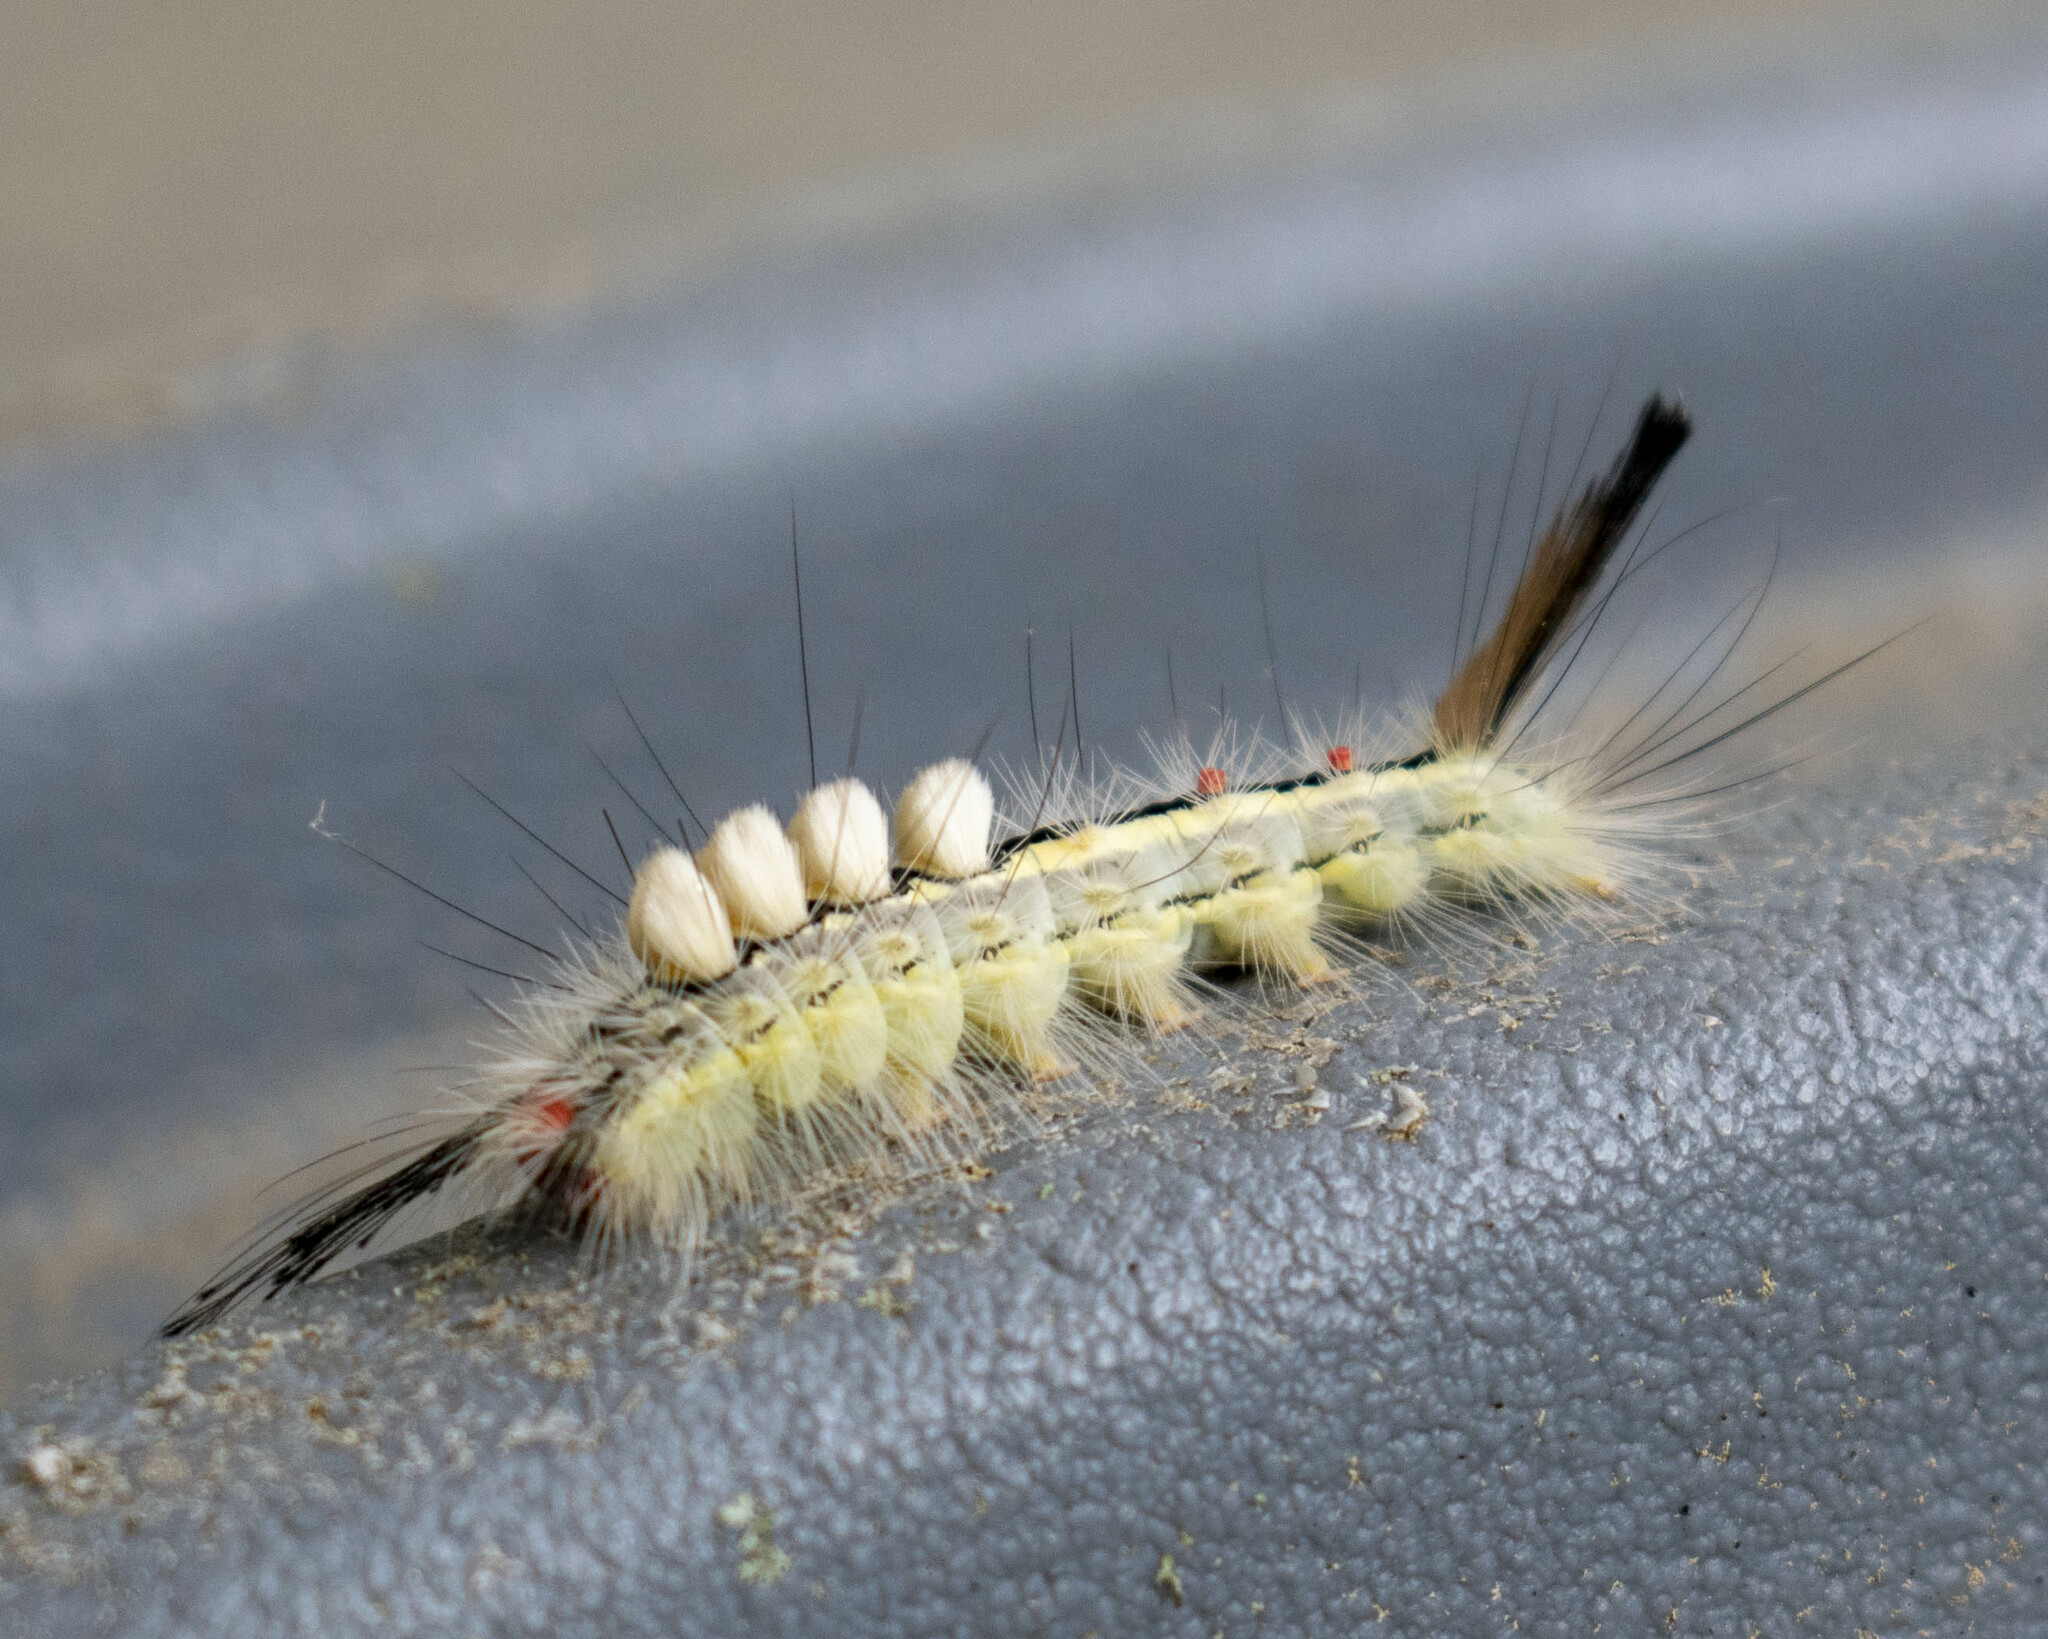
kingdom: Animalia
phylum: Arthropoda
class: Insecta
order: Lepidoptera
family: Erebidae
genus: Orgyia
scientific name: Orgyia leucostigma
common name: White-marked tussock moth
